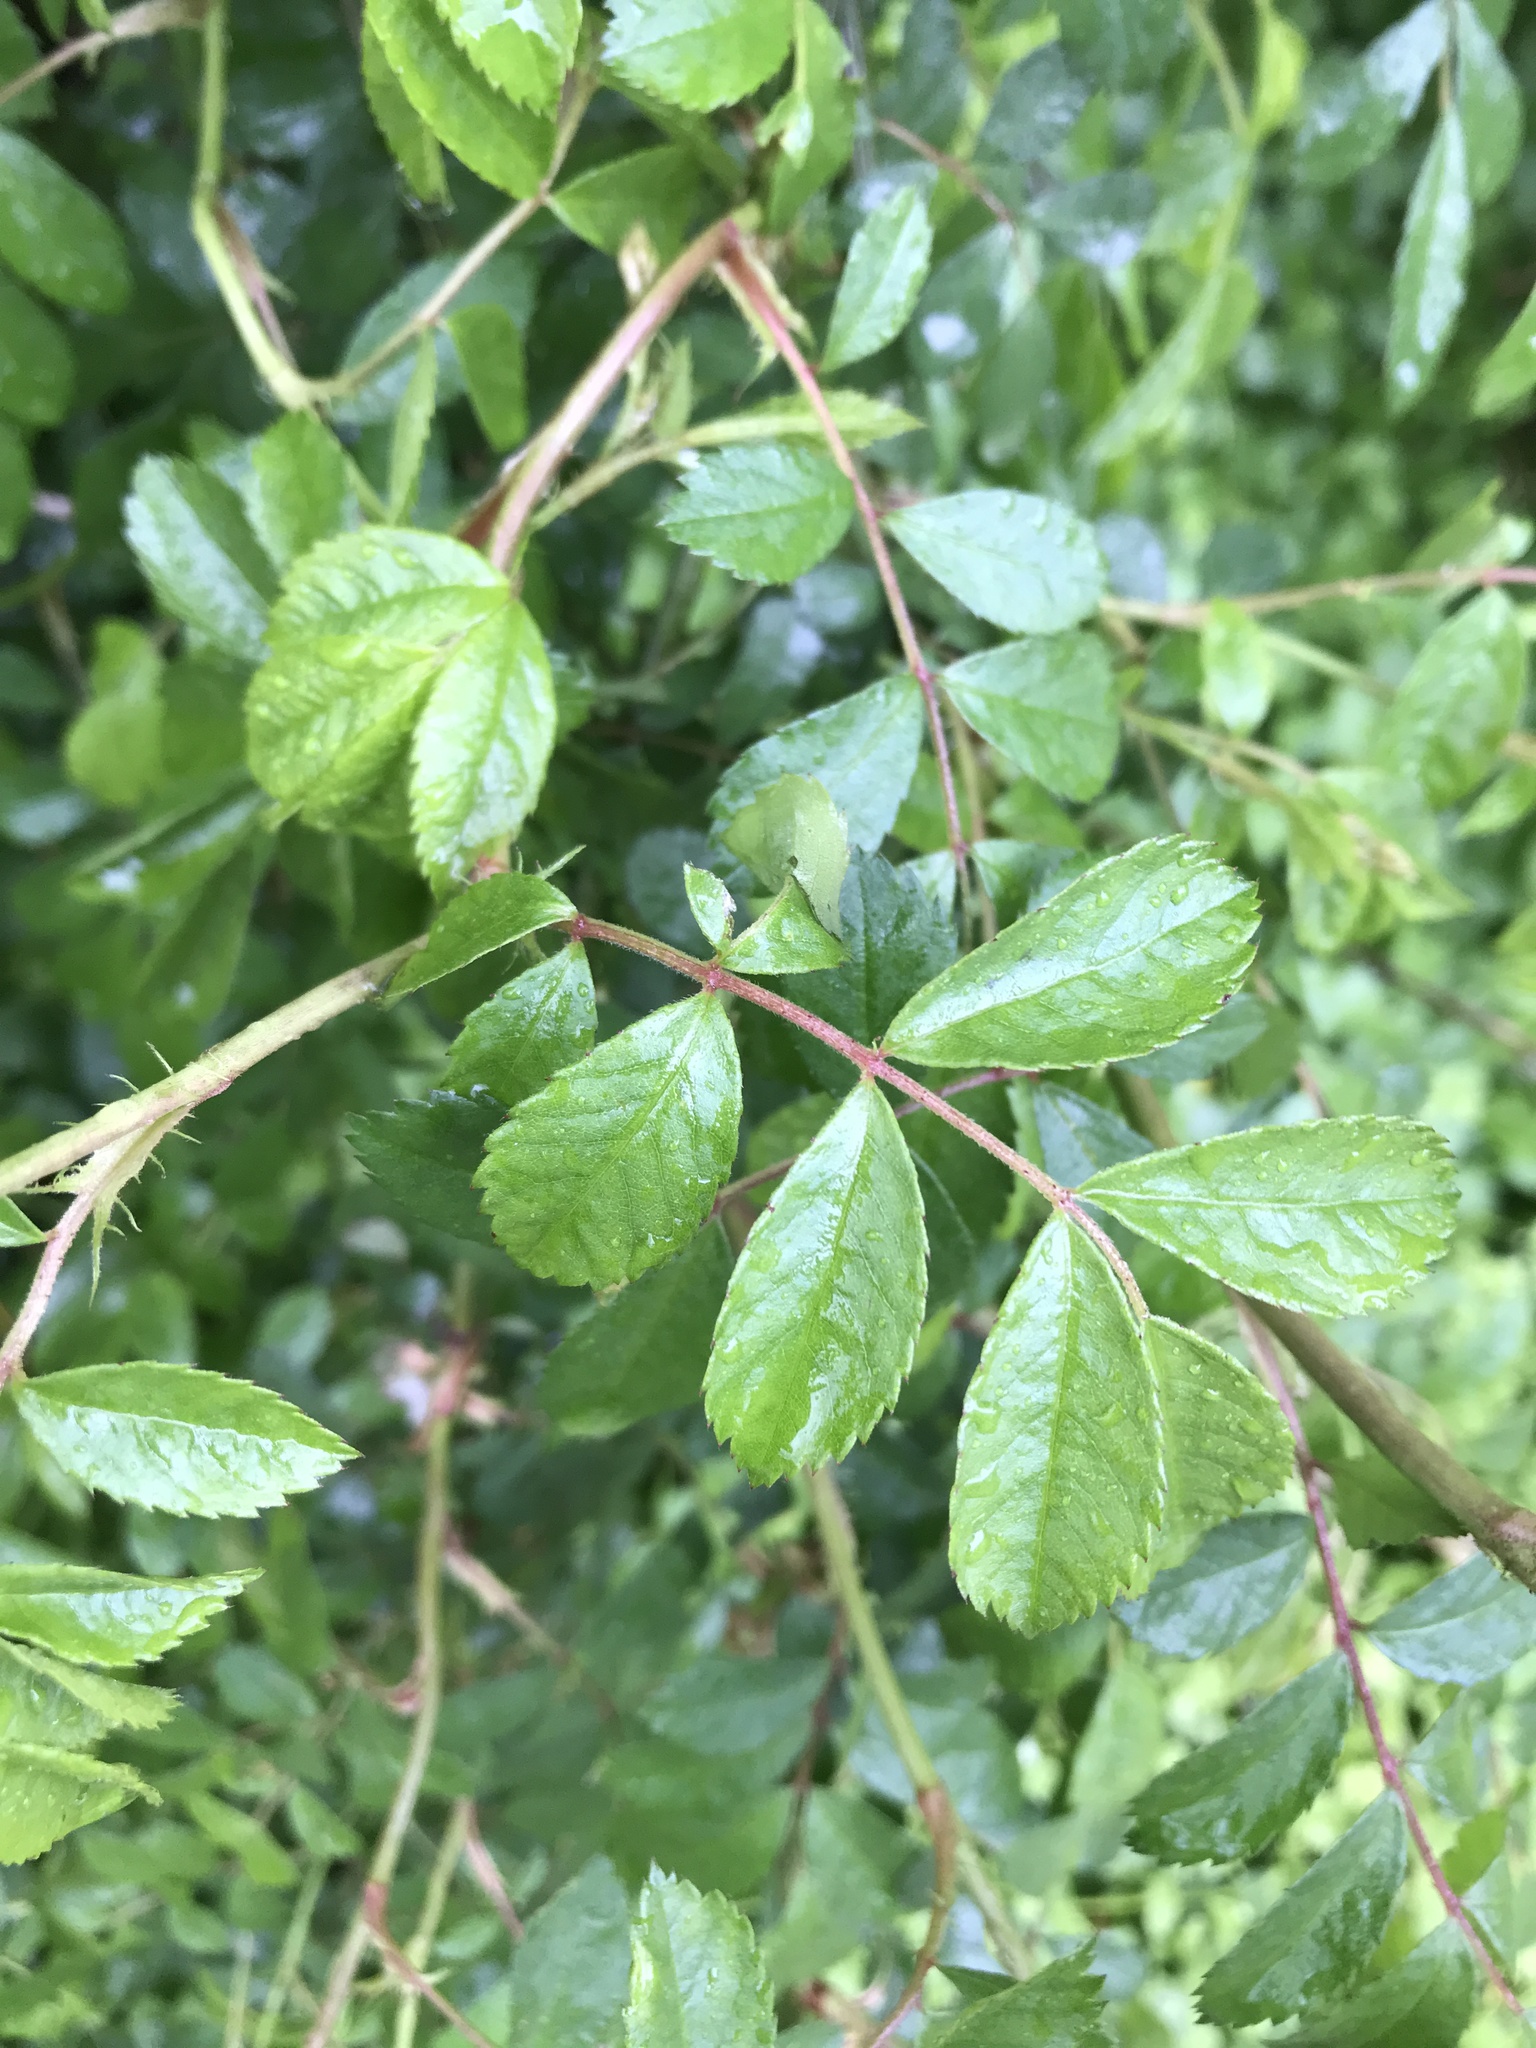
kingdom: Plantae
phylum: Tracheophyta
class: Magnoliopsida
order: Rosales
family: Rosaceae
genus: Rosa
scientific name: Rosa multiflora
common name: Multiflora rose
